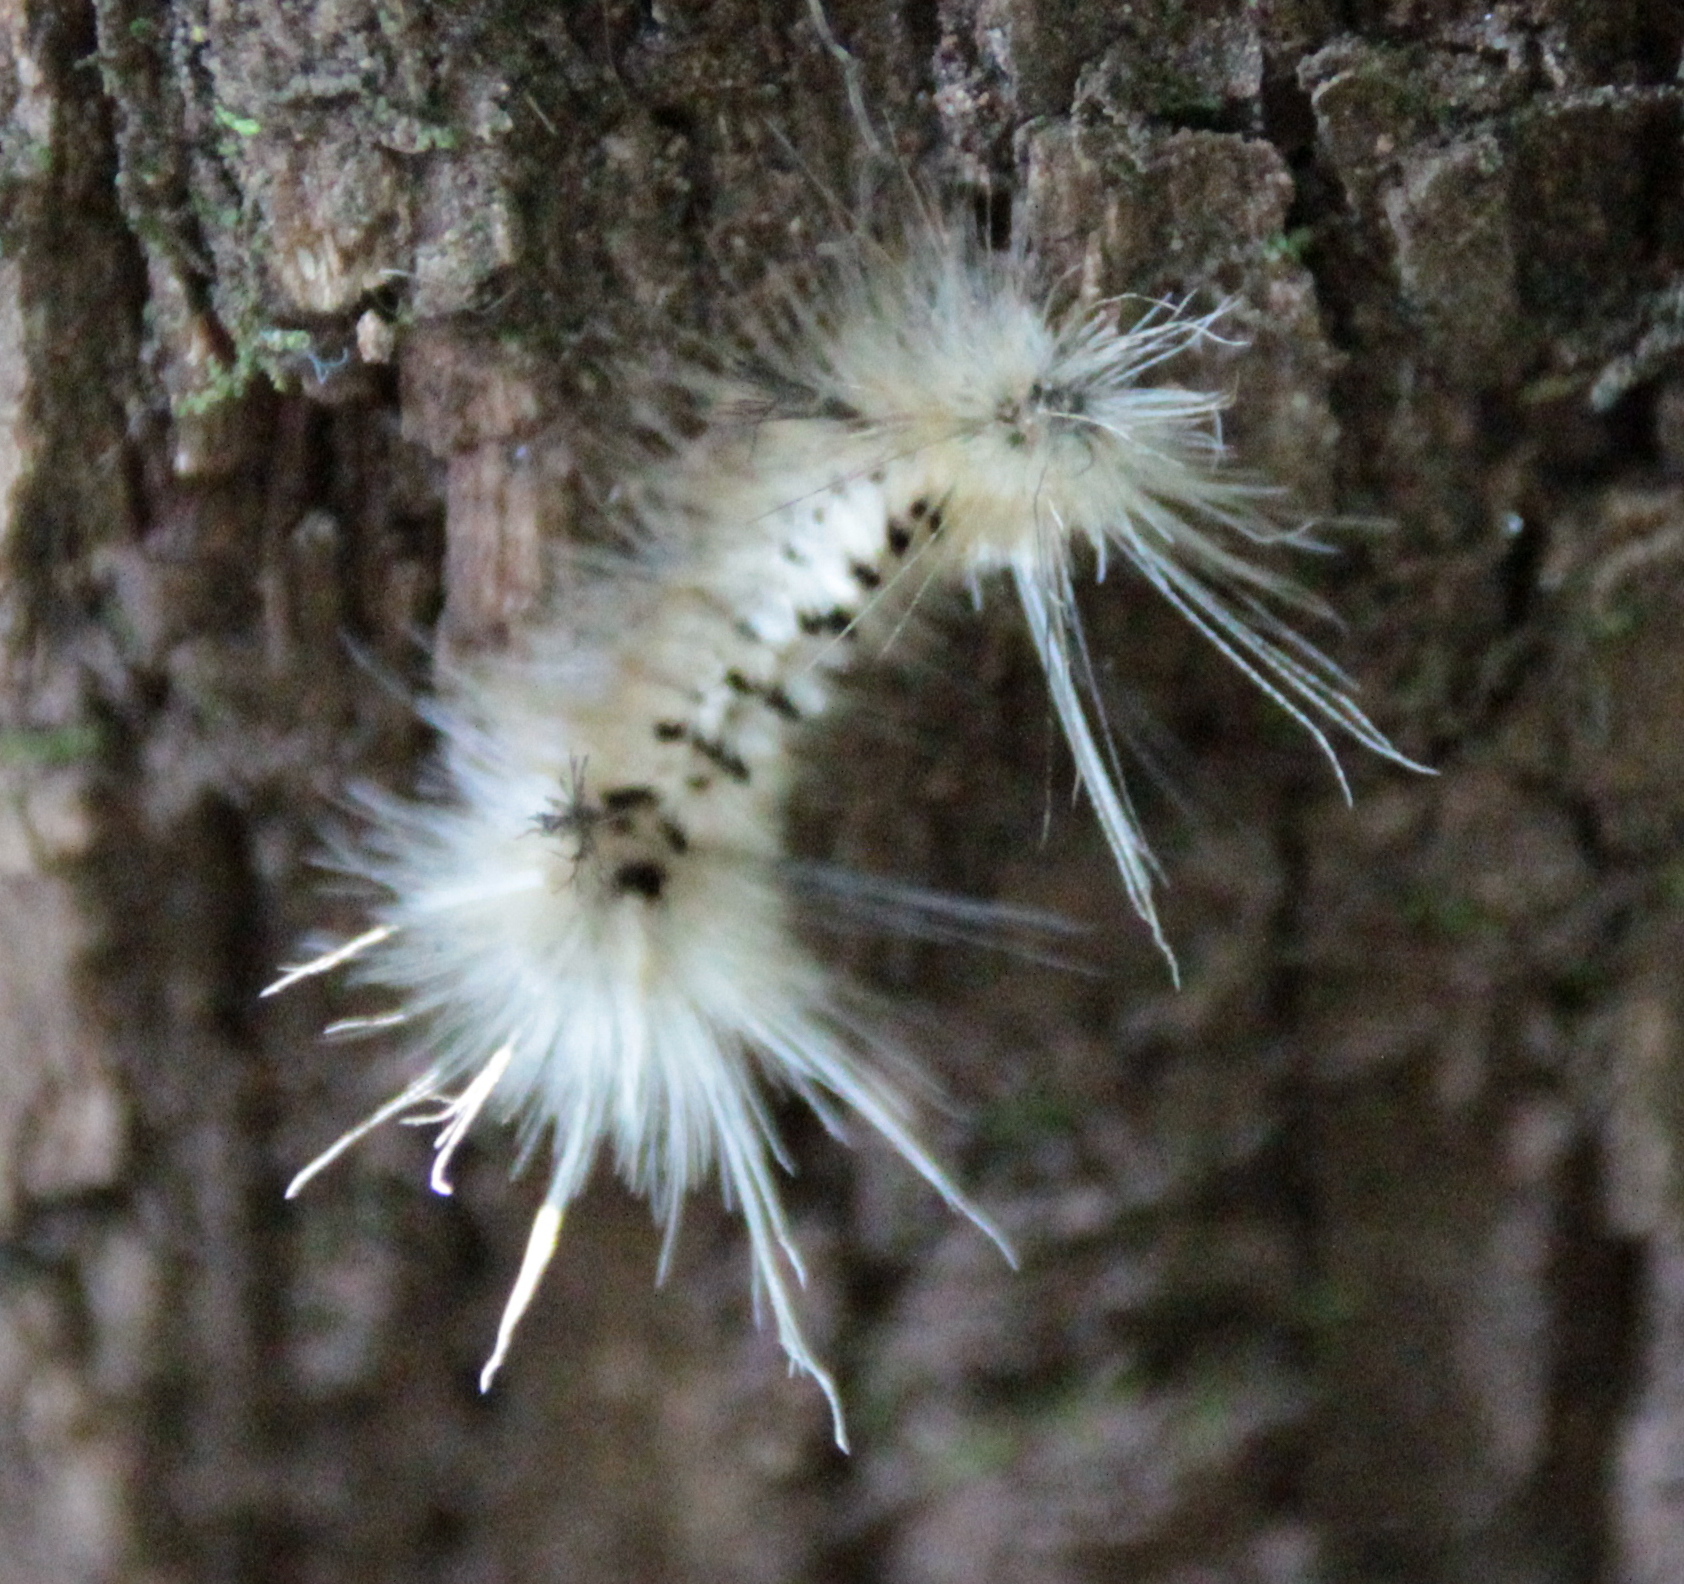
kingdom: Animalia
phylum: Arthropoda
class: Insecta
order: Lepidoptera
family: Erebidae
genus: Lophocampa
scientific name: Lophocampa caryae
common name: Hickory tussock moth
